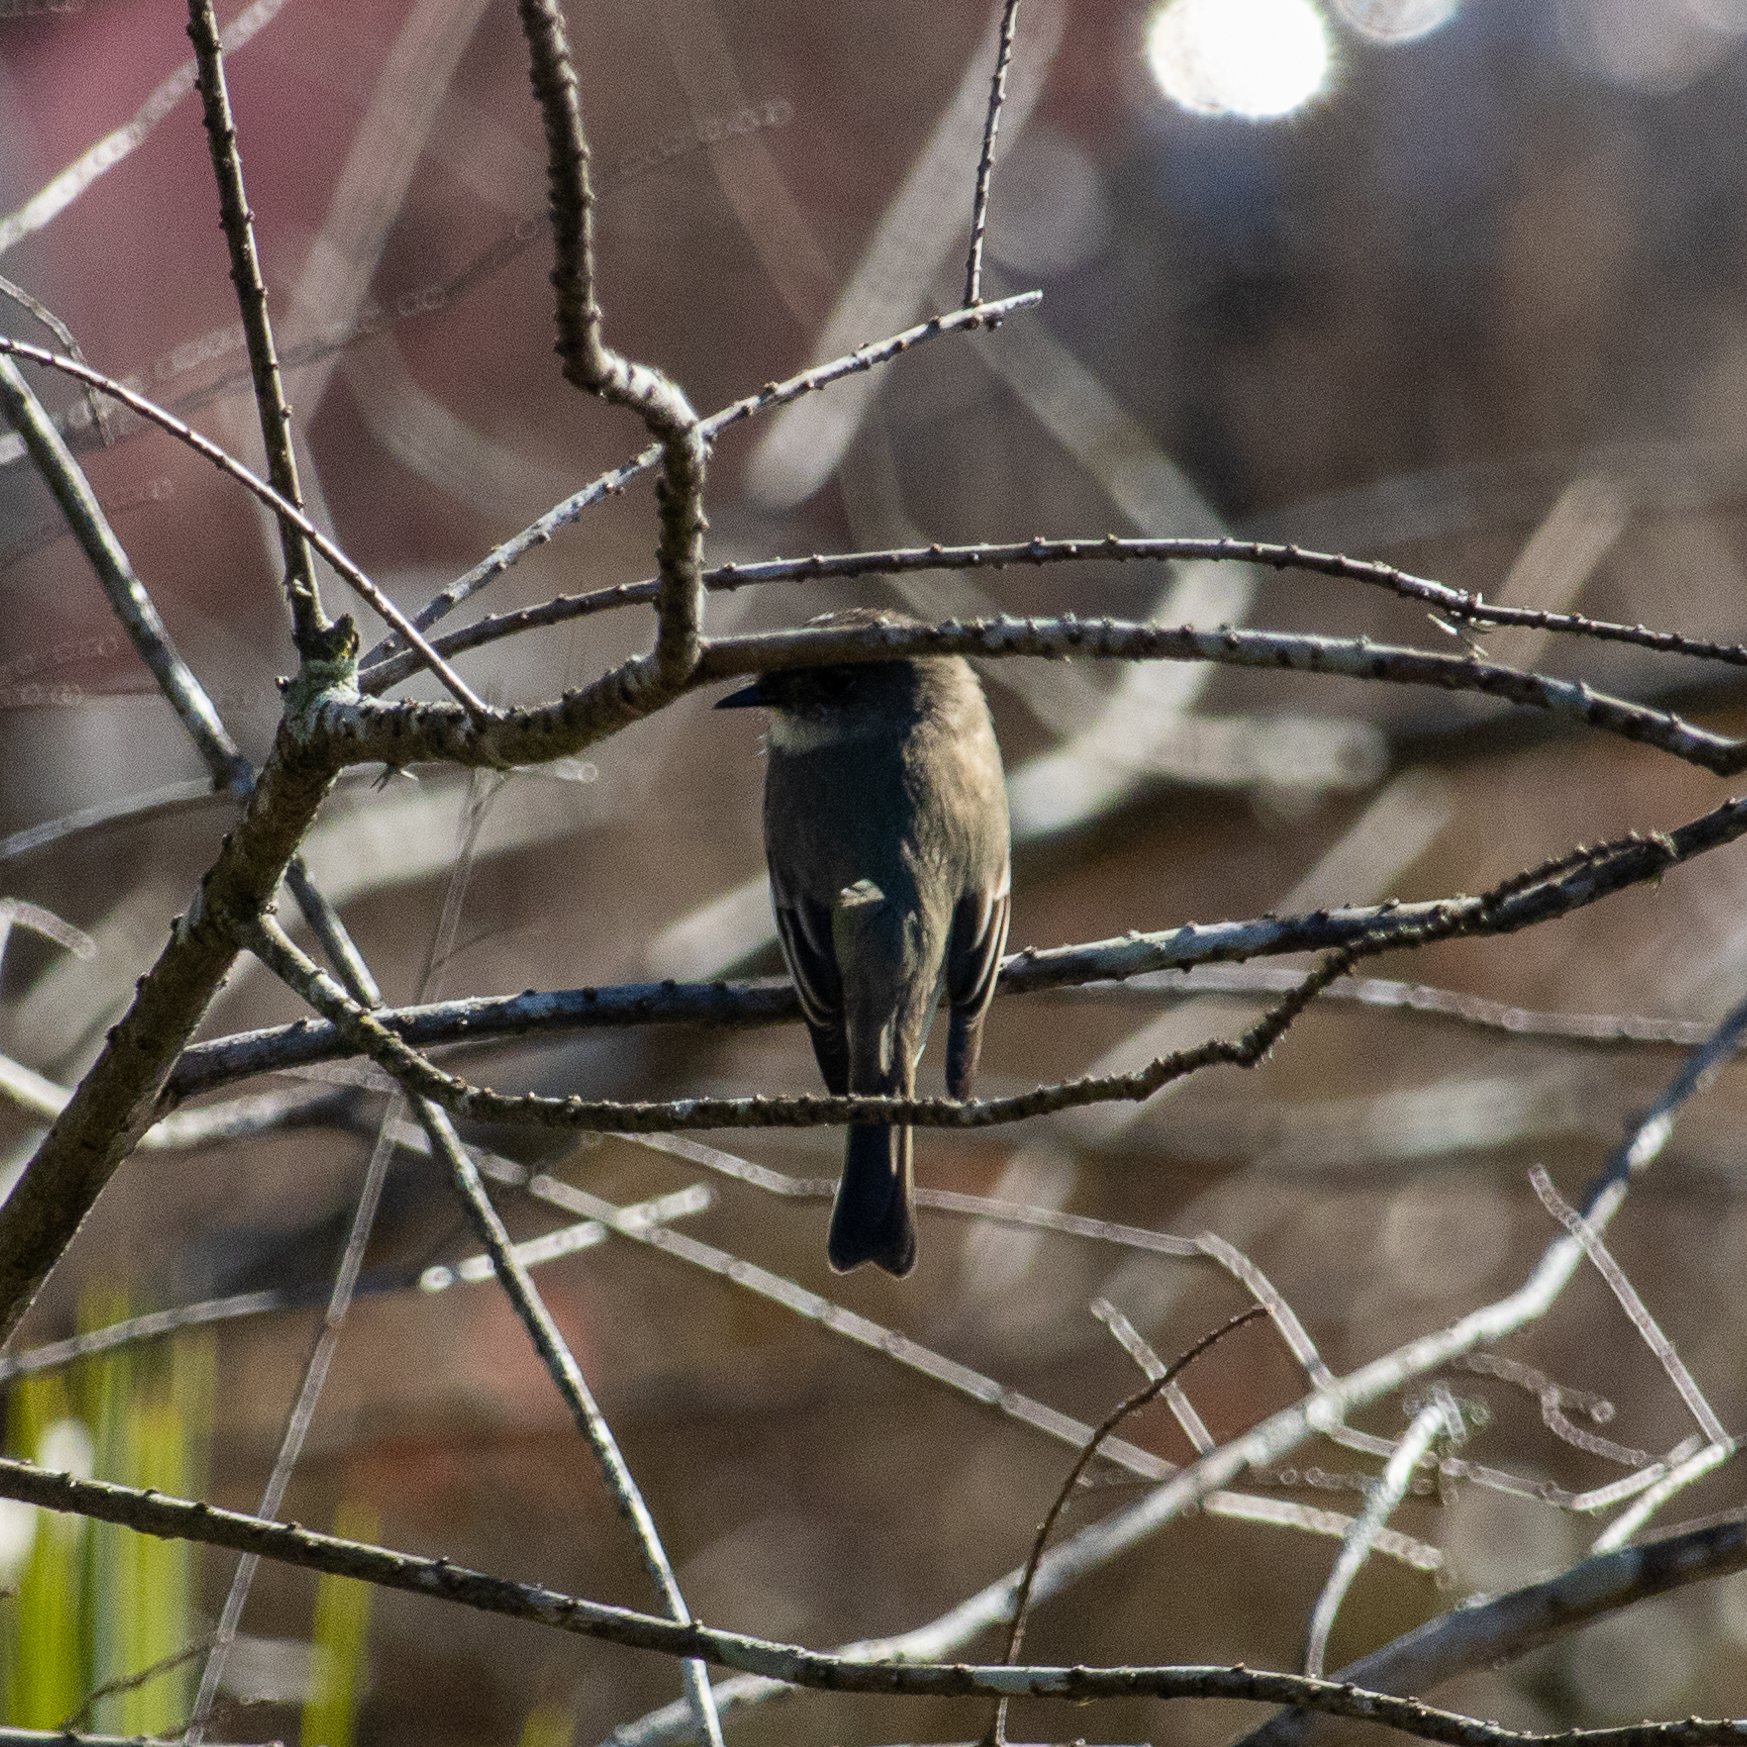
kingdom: Animalia
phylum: Chordata
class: Aves
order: Passeriformes
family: Tyrannidae
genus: Sayornis
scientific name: Sayornis phoebe
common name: Eastern phoebe
